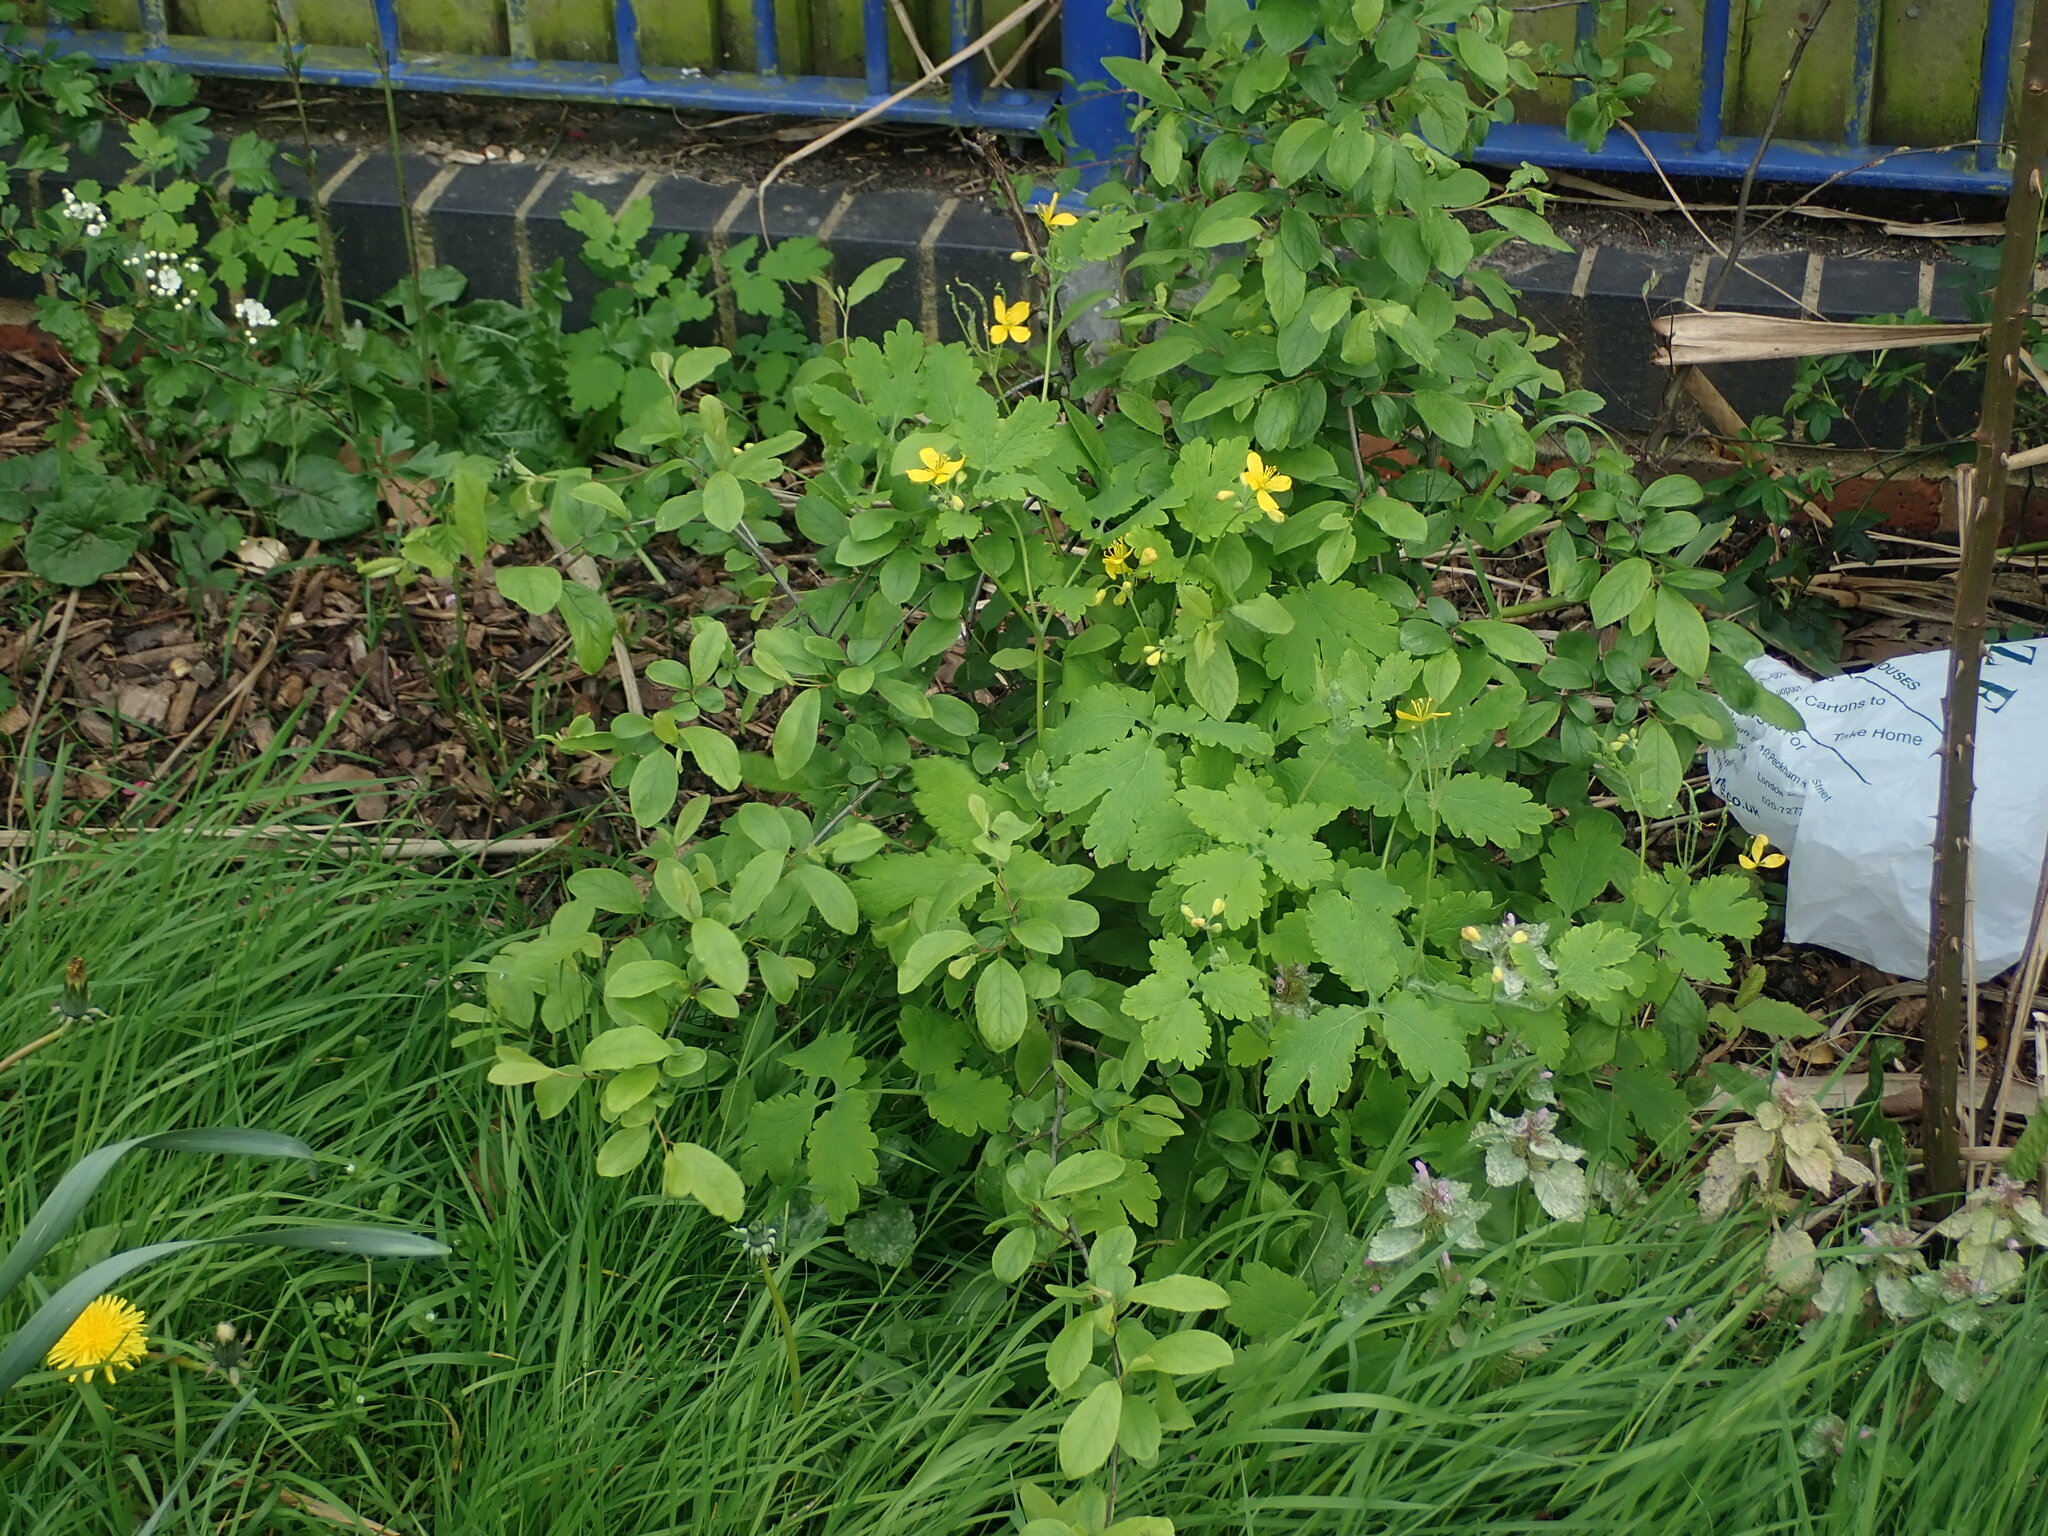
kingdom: Plantae
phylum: Tracheophyta
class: Magnoliopsida
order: Ranunculales
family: Papaveraceae
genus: Chelidonium
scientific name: Chelidonium majus
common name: Greater celandine
